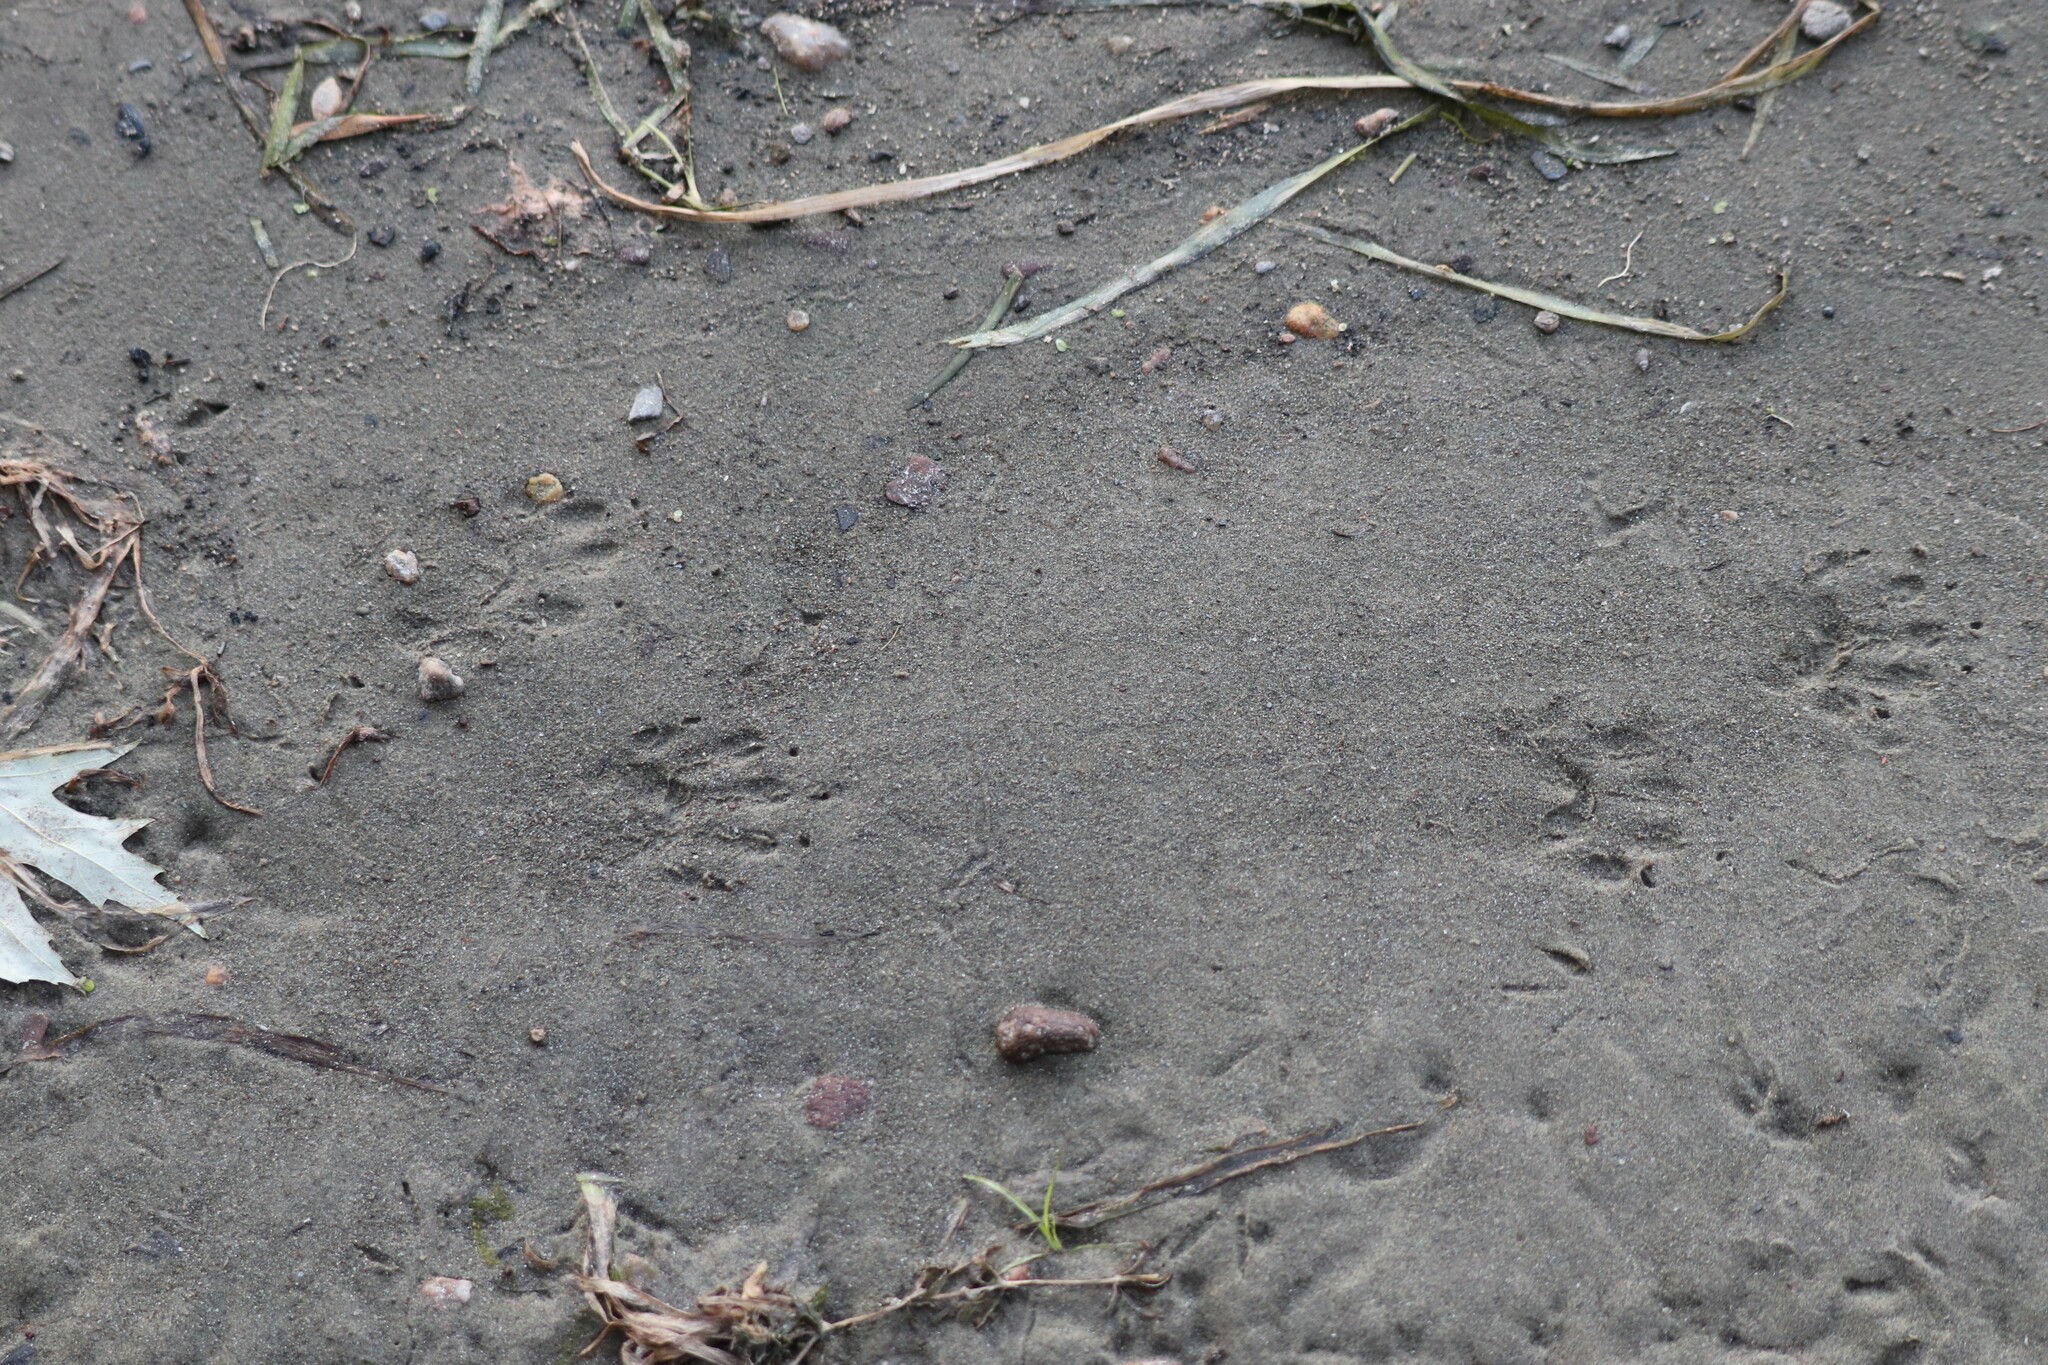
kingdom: Animalia
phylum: Chordata
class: Mammalia
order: Carnivora
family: Procyonidae
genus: Procyon
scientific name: Procyon lotor
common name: Raccoon
